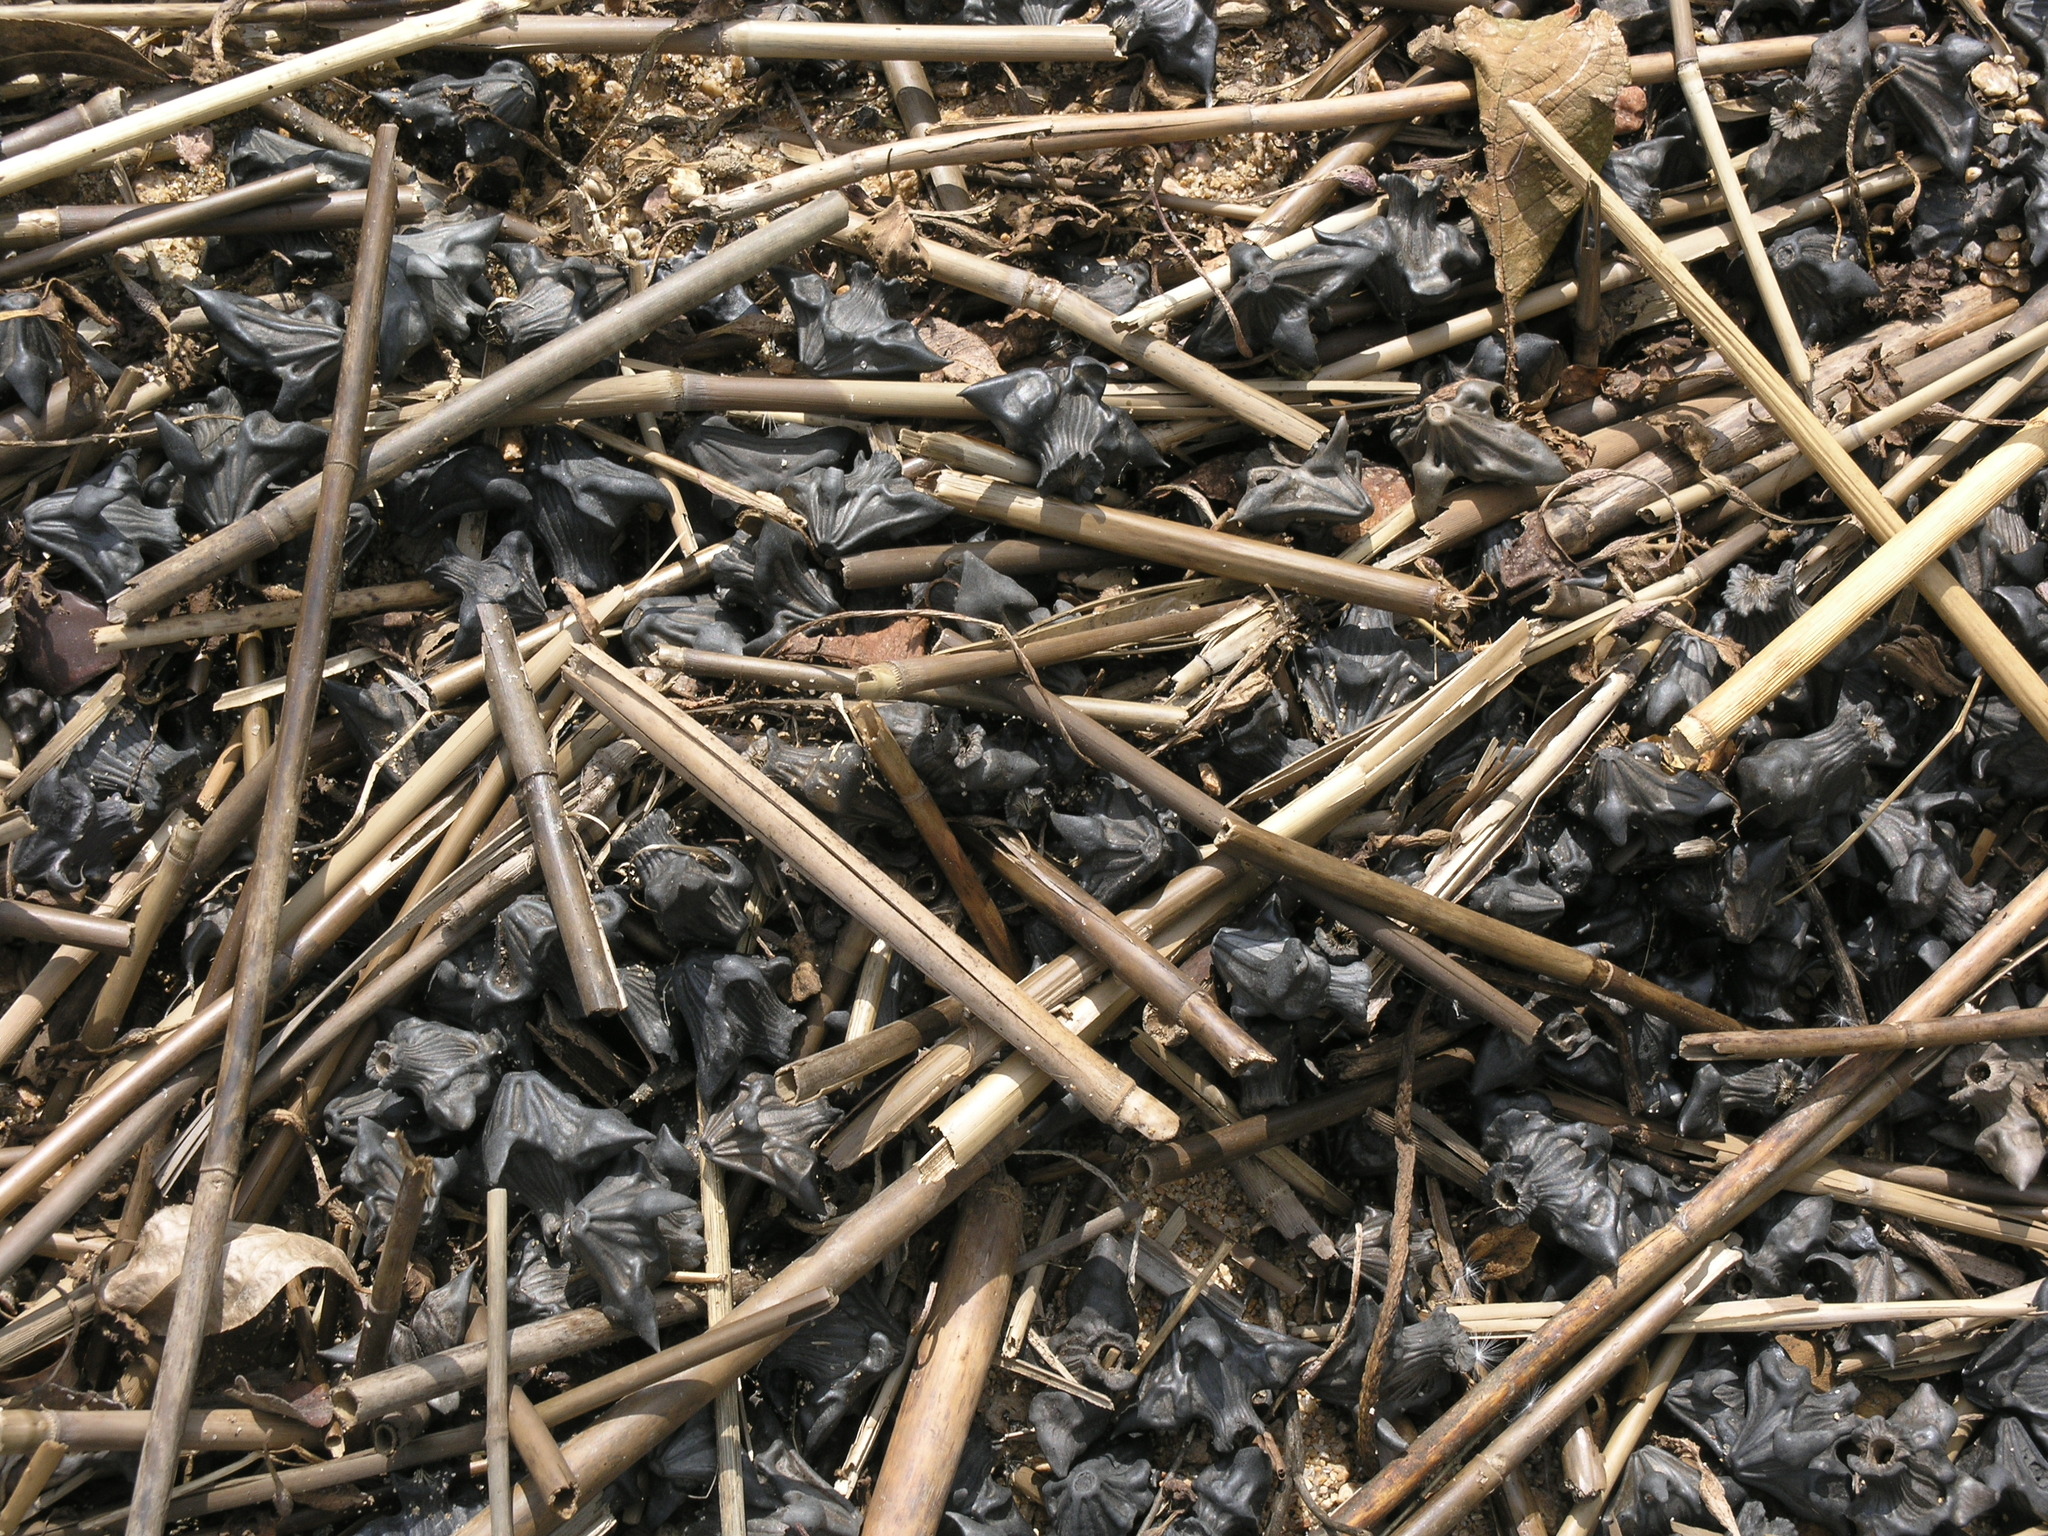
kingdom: Plantae
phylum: Tracheophyta
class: Magnoliopsida
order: Myrtales
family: Lythraceae
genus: Trapa
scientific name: Trapa natans
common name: Water chestnut
